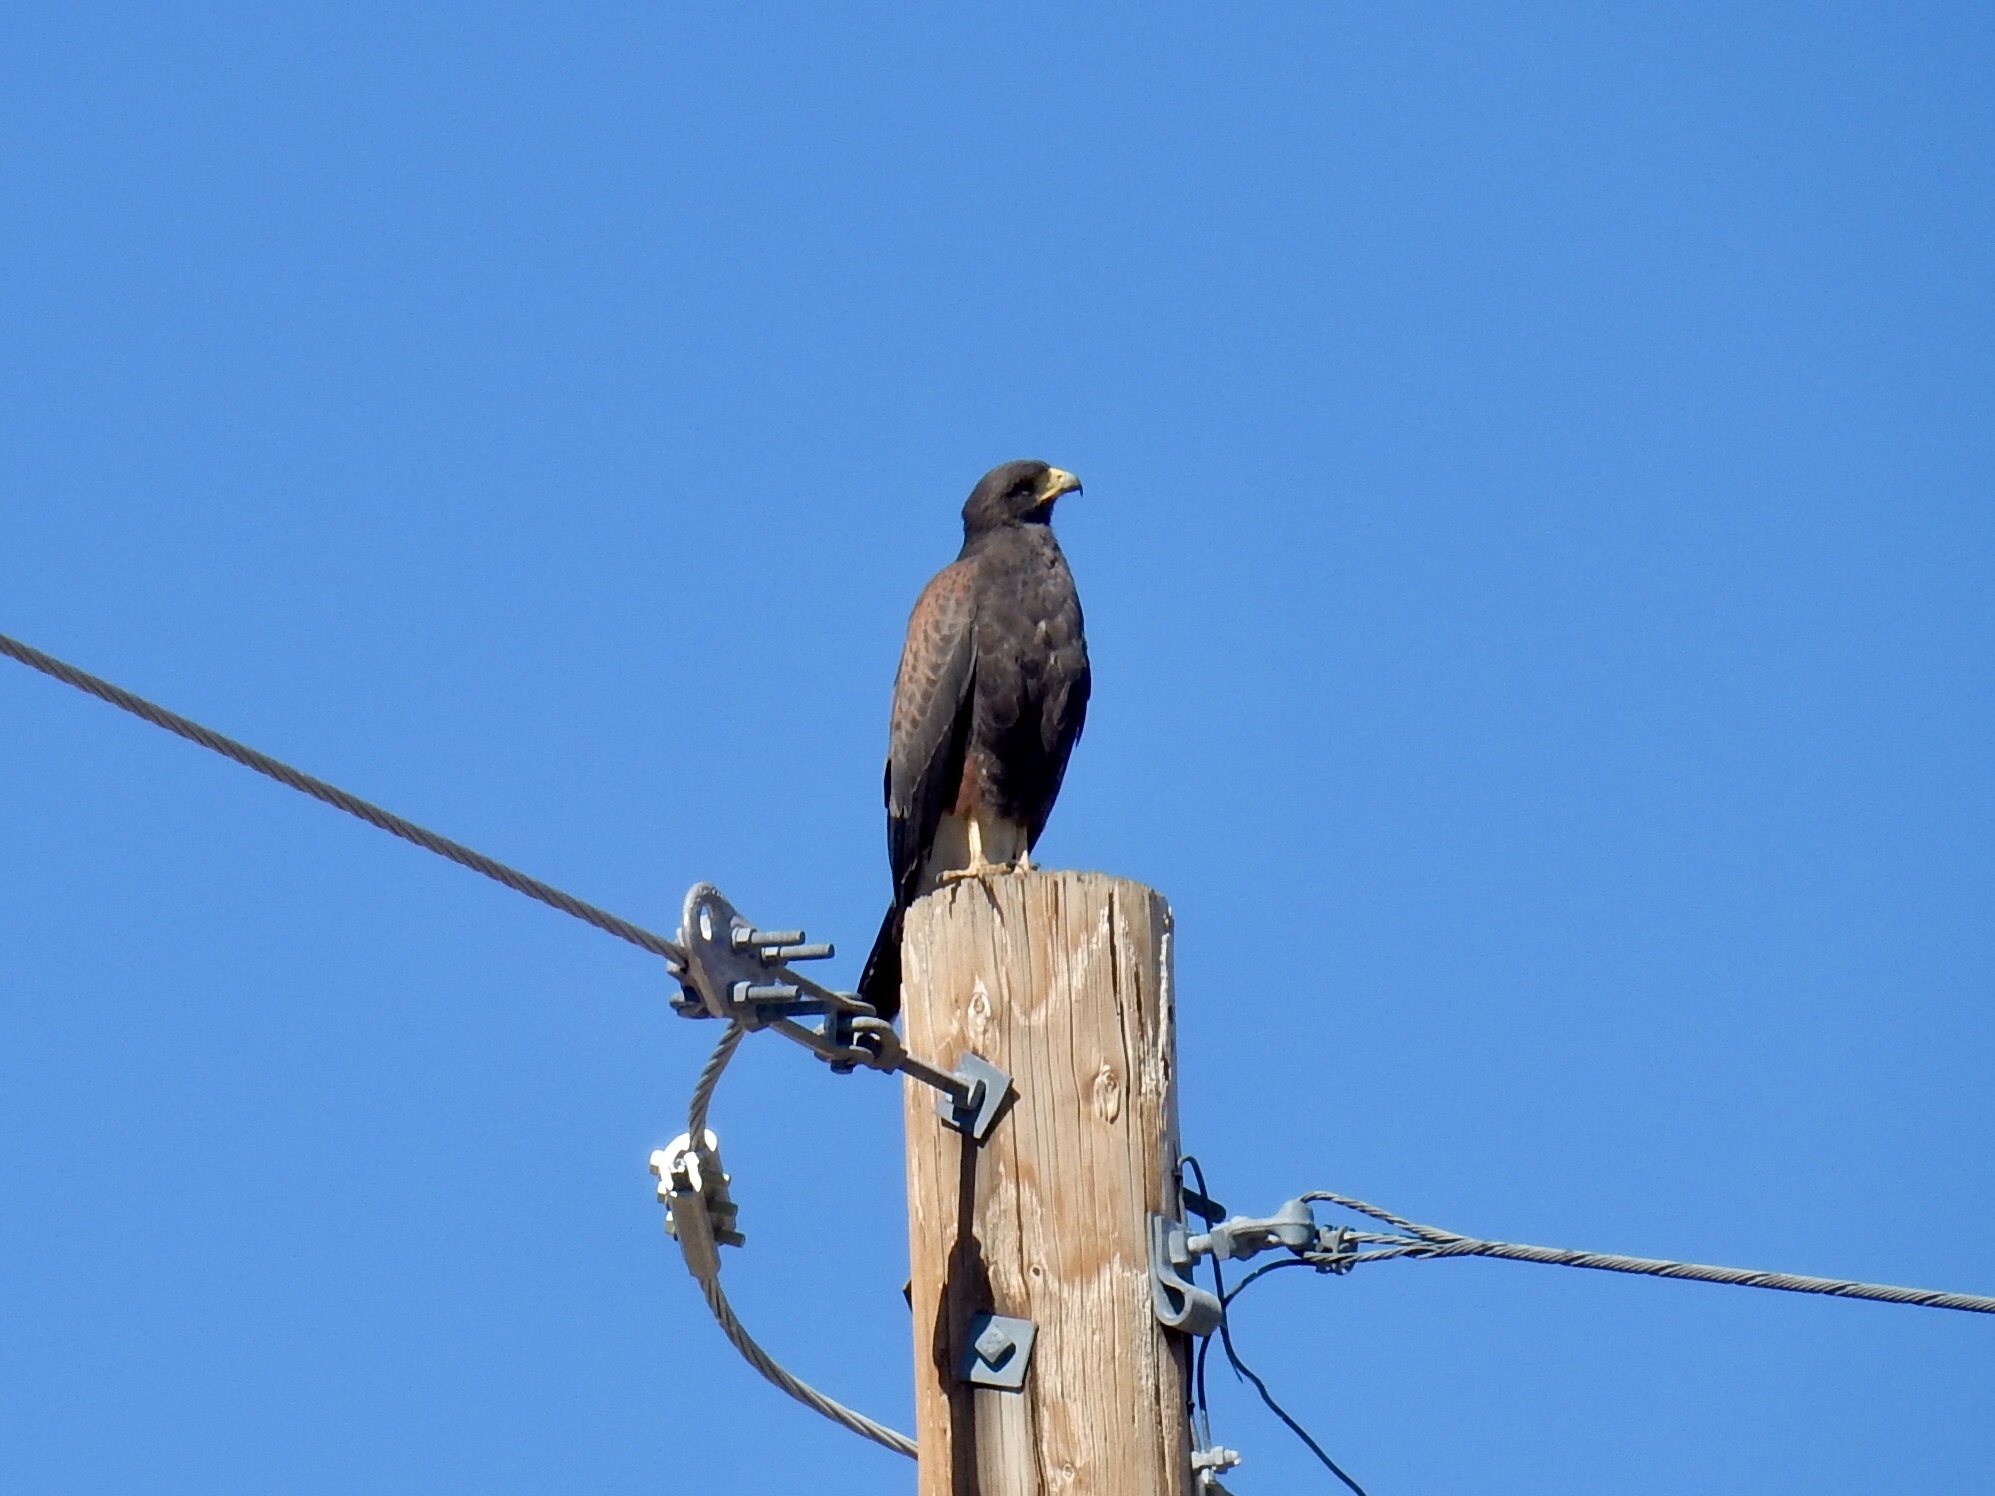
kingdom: Animalia
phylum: Chordata
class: Aves
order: Accipitriformes
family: Accipitridae
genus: Parabuteo
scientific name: Parabuteo unicinctus
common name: Harris's hawk
